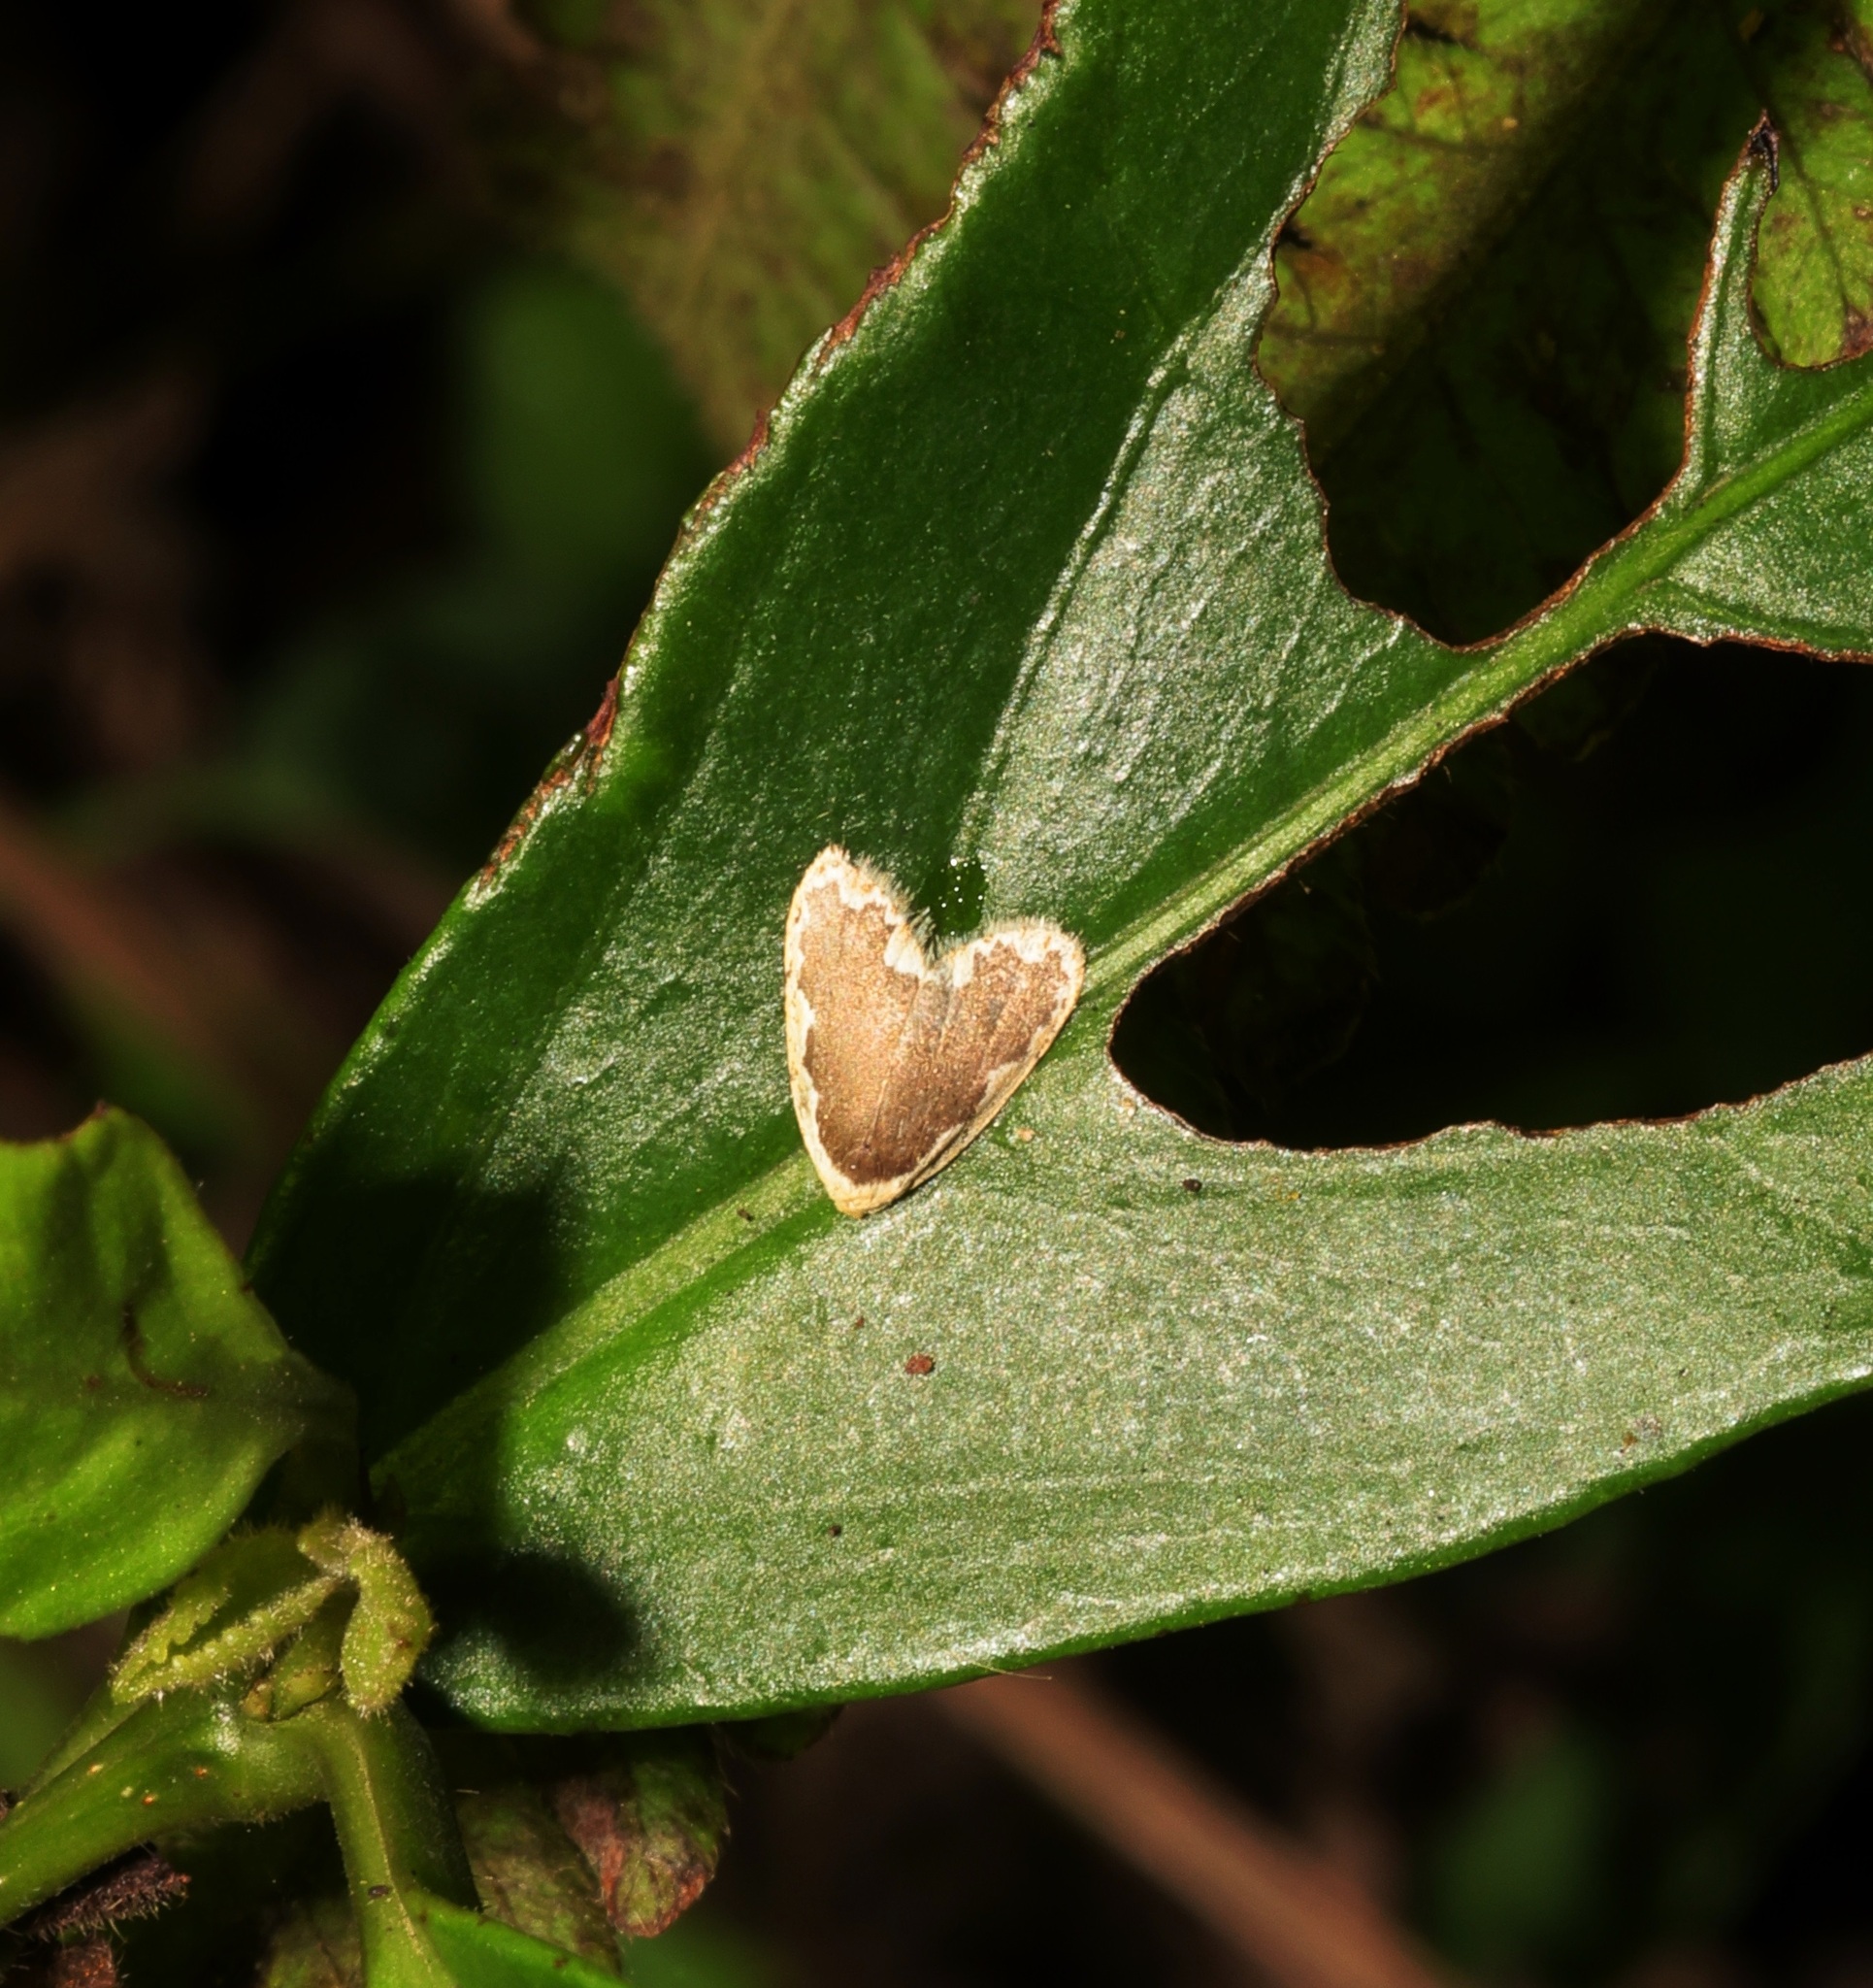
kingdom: Animalia
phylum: Arthropoda
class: Insecta
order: Lepidoptera
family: Erebidae
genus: Diduga
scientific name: Diduga flavicostata
